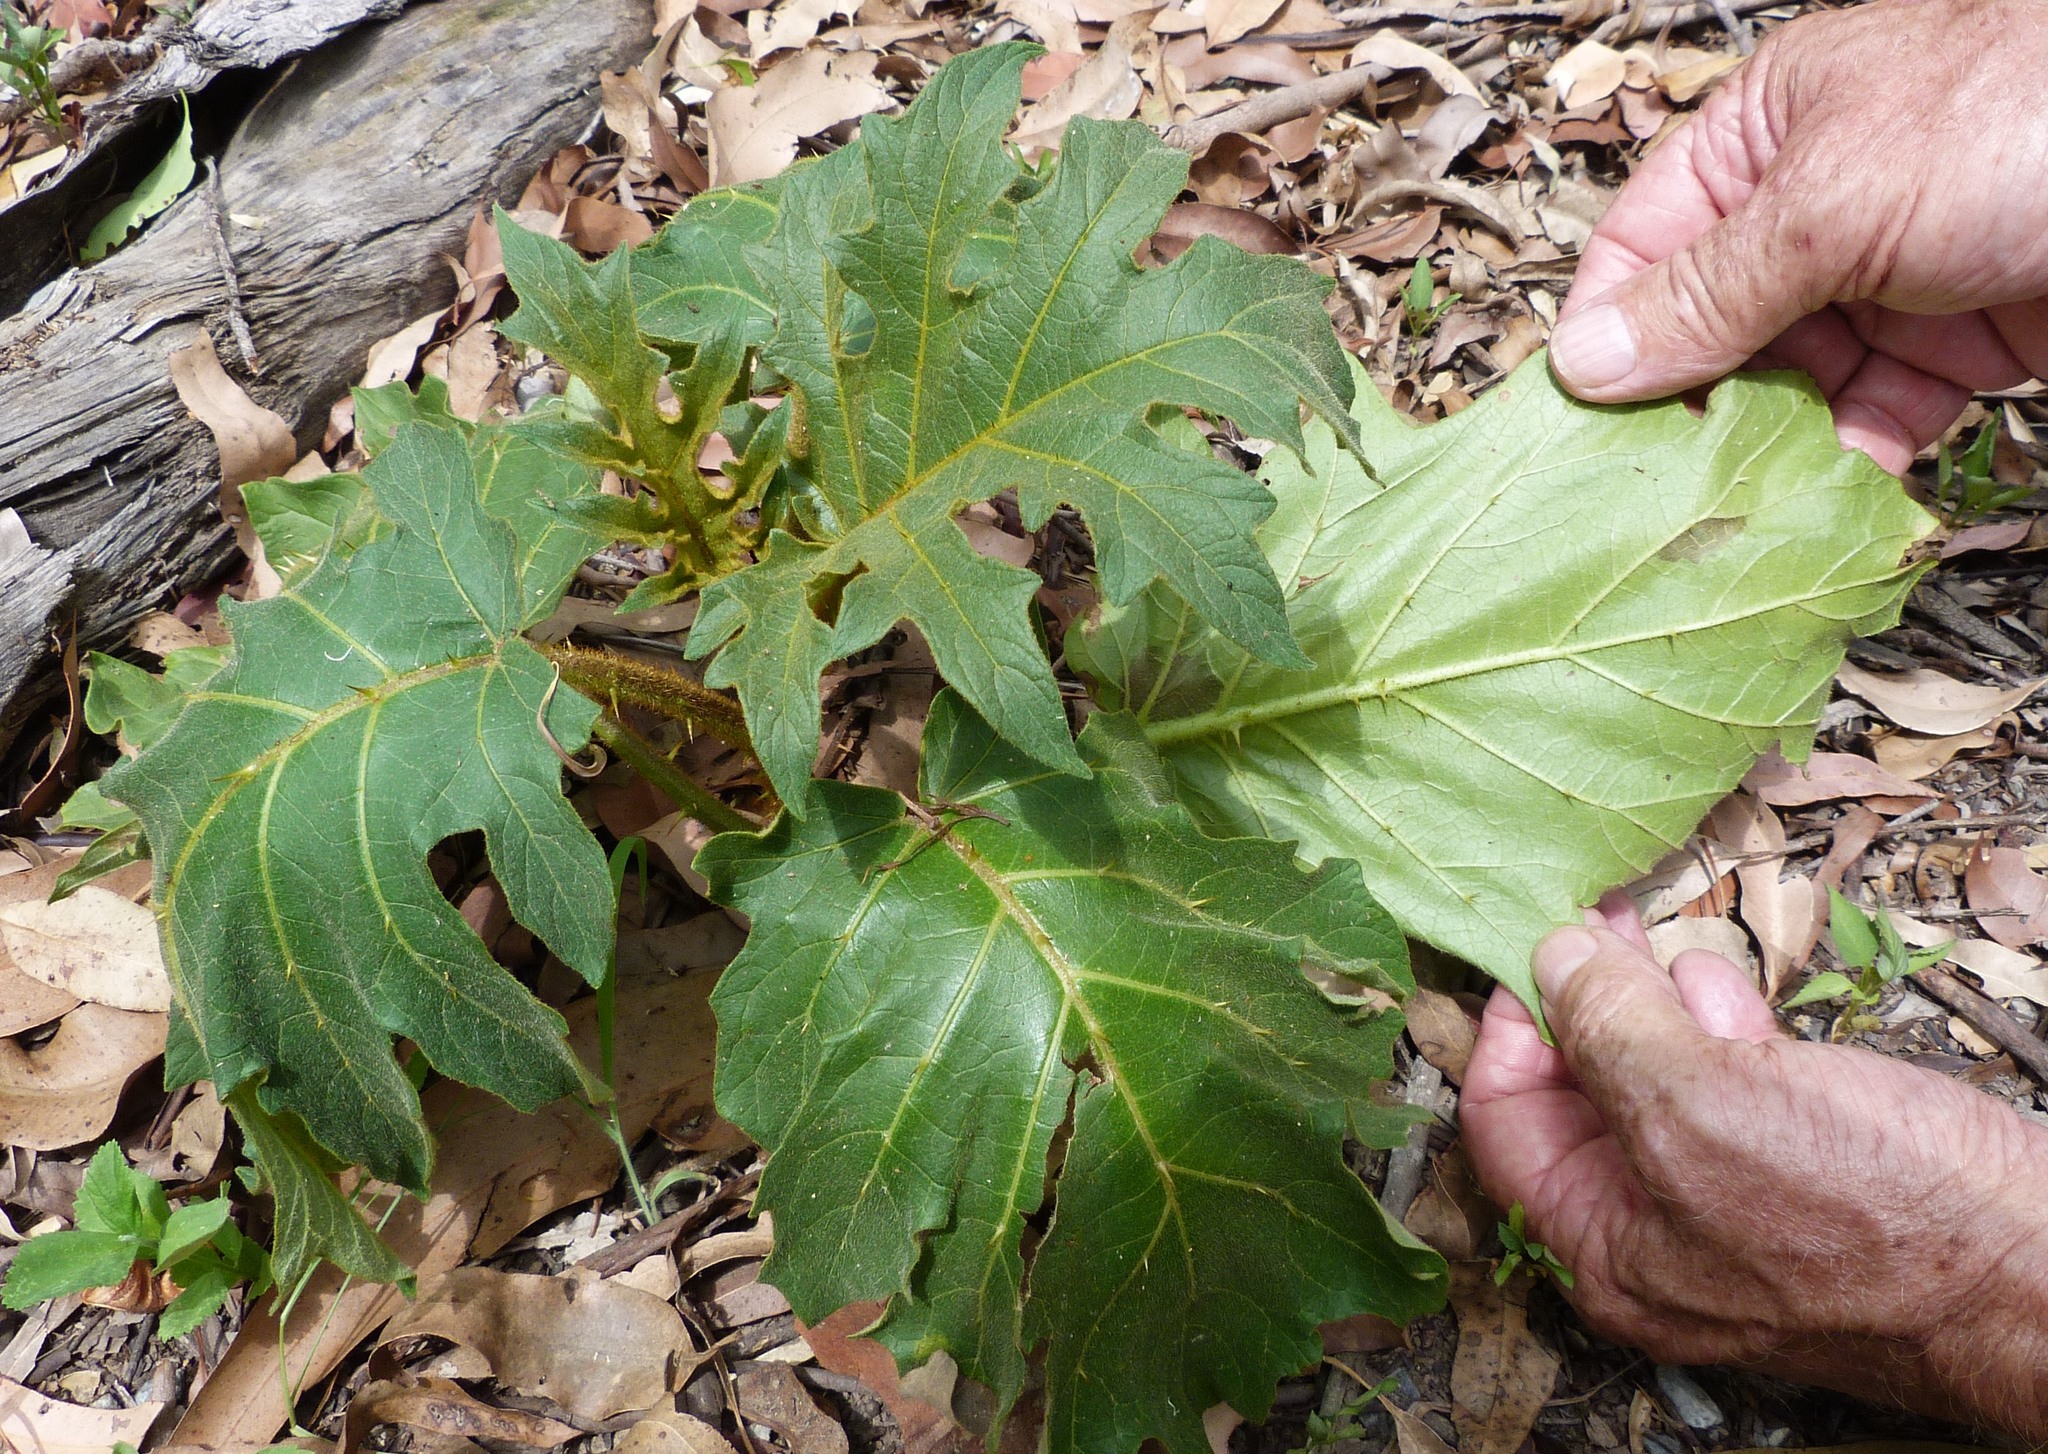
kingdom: Plantae
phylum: Tracheophyta
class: Magnoliopsida
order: Solanales
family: Solanaceae
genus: Solanum
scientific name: Solanum chrysotrichum
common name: Nightshade
